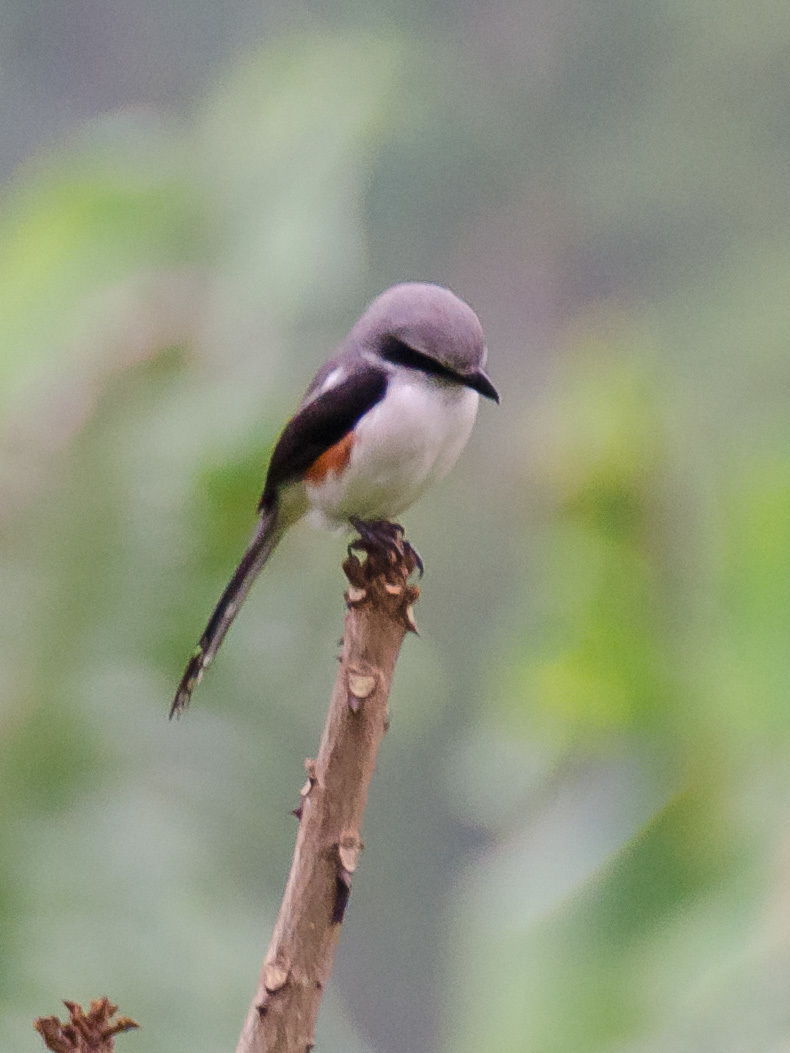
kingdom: Animalia
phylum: Chordata
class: Aves
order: Passeriformes
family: Laniidae
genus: Lanius
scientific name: Lanius mackinnoni
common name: Mackinnon's shrike
